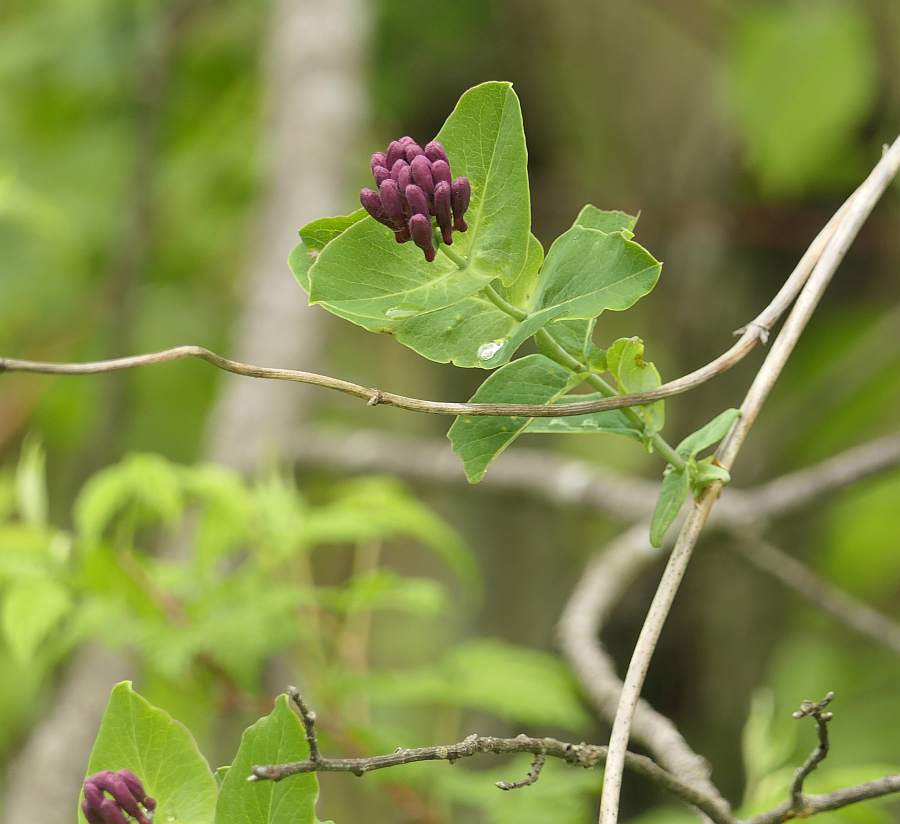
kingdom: Plantae
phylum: Tracheophyta
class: Magnoliopsida
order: Dipsacales
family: Caprifoliaceae
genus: Lonicera
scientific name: Lonicera dioica
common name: Limber honeysuckle
